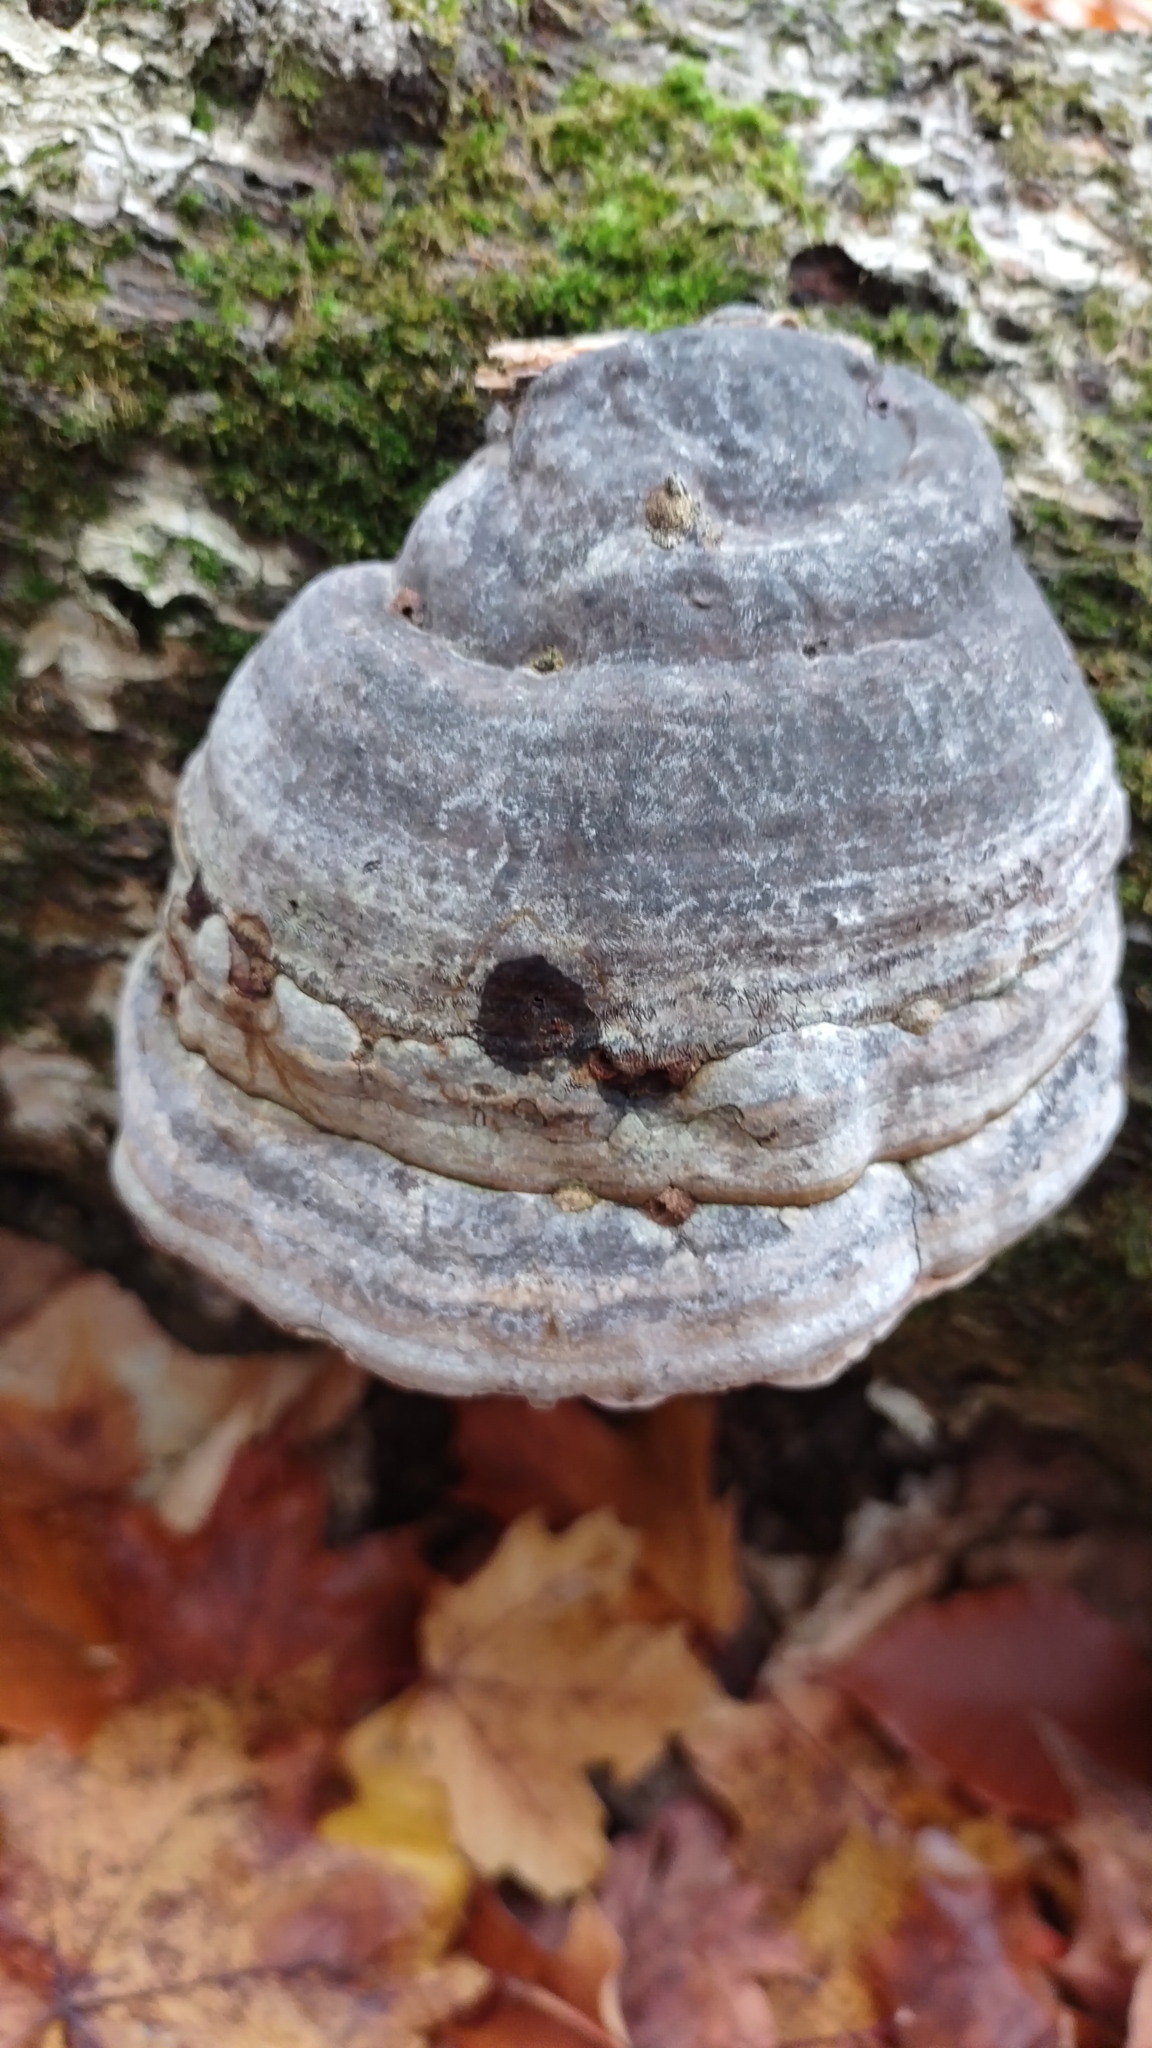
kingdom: Fungi
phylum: Basidiomycota
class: Agaricomycetes
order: Polyporales
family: Polyporaceae
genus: Fomes
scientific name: Fomes fomentarius
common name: Hoof fungus
